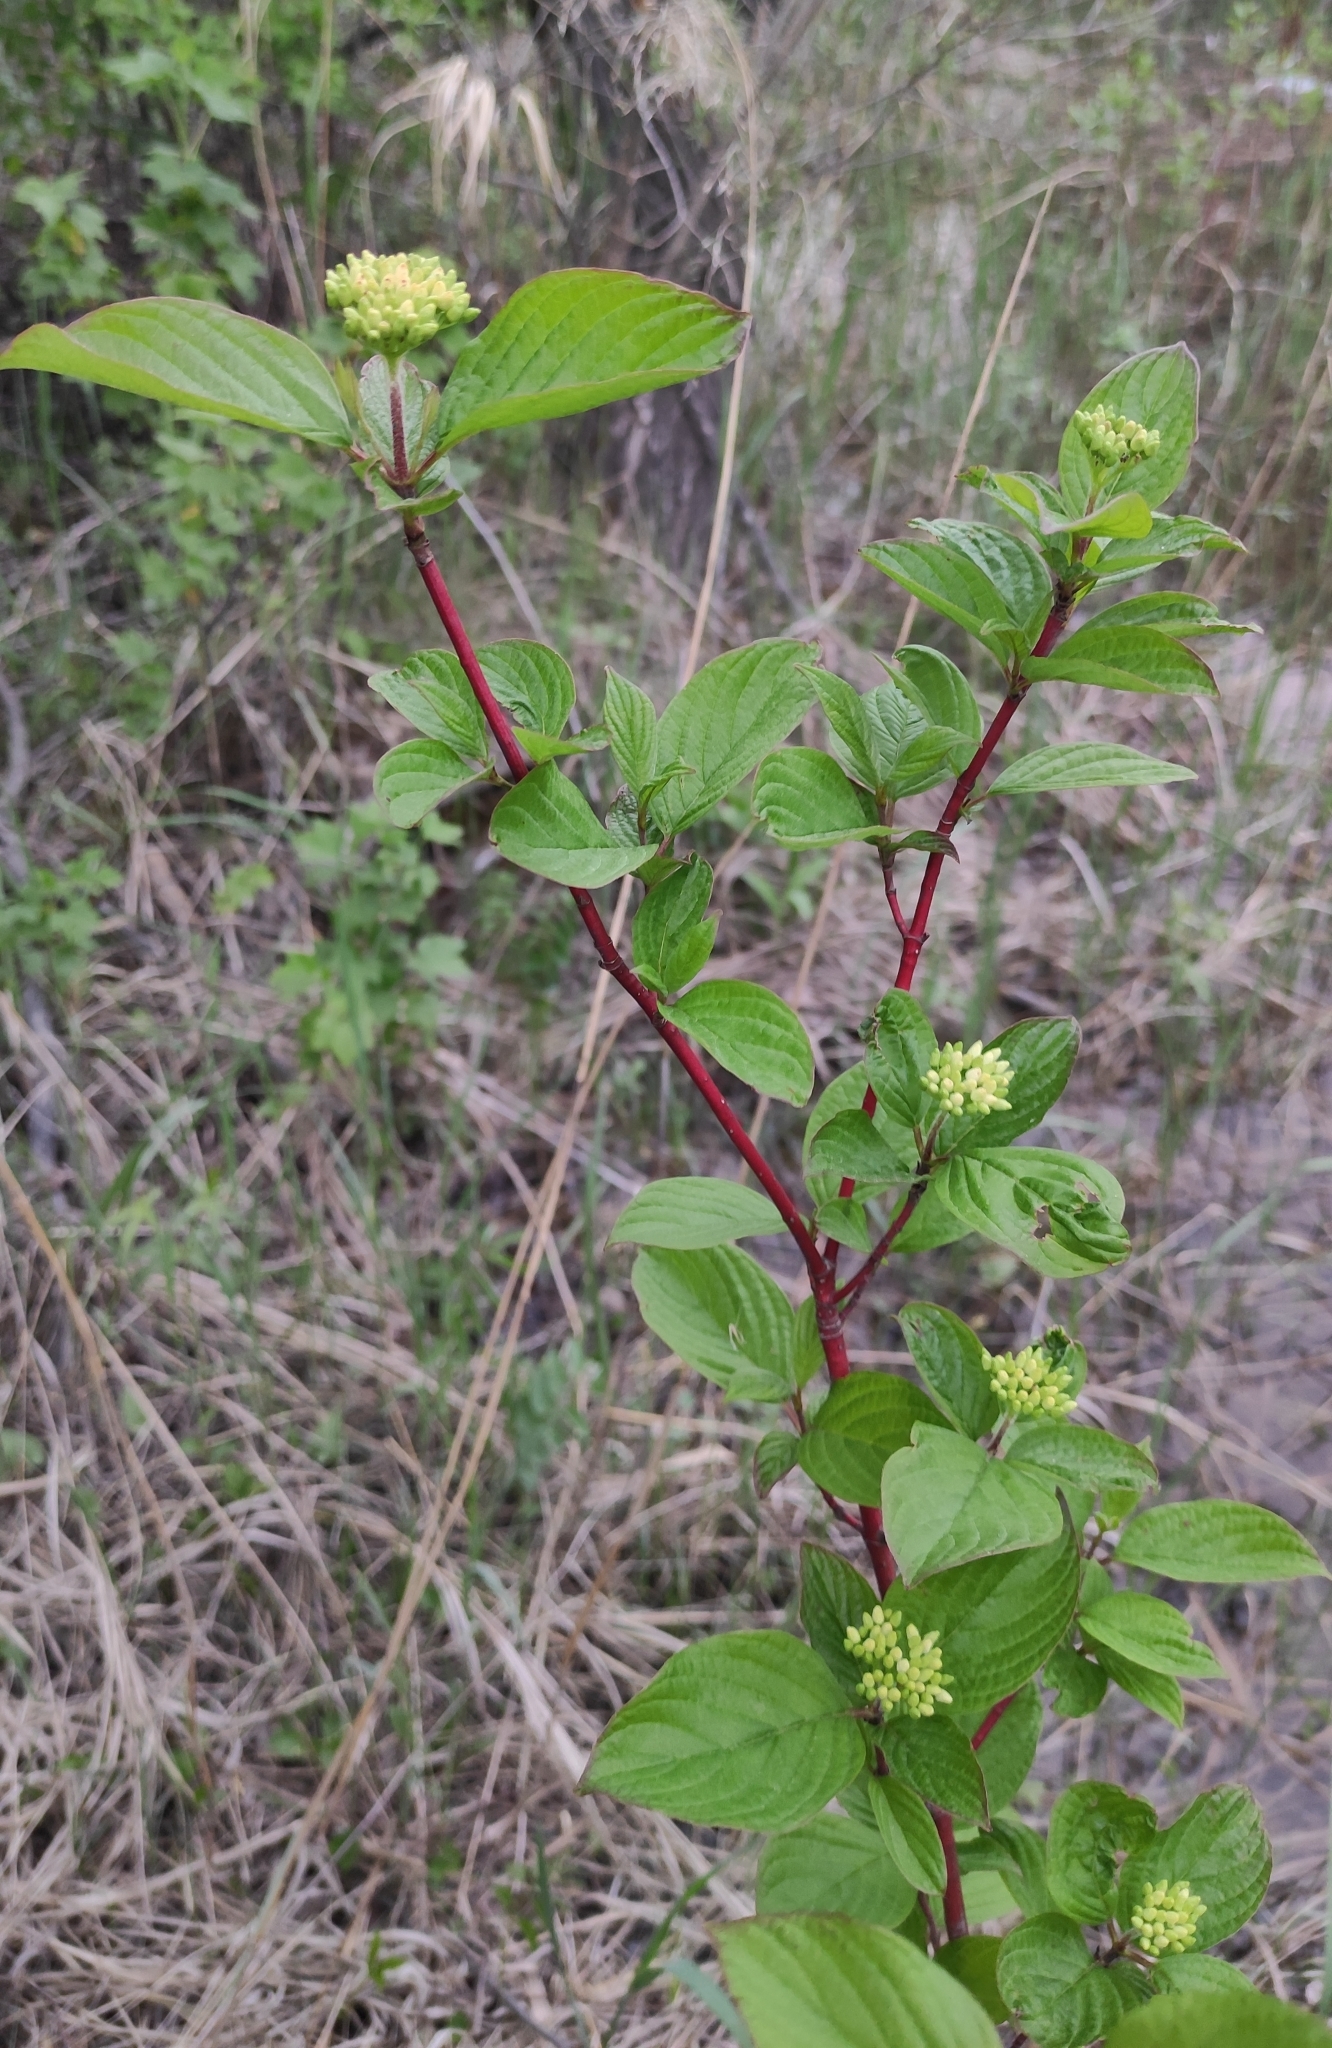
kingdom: Plantae
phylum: Tracheophyta
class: Magnoliopsida
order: Cornales
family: Cornaceae
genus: Cornus
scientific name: Cornus alba
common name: White dogwood
